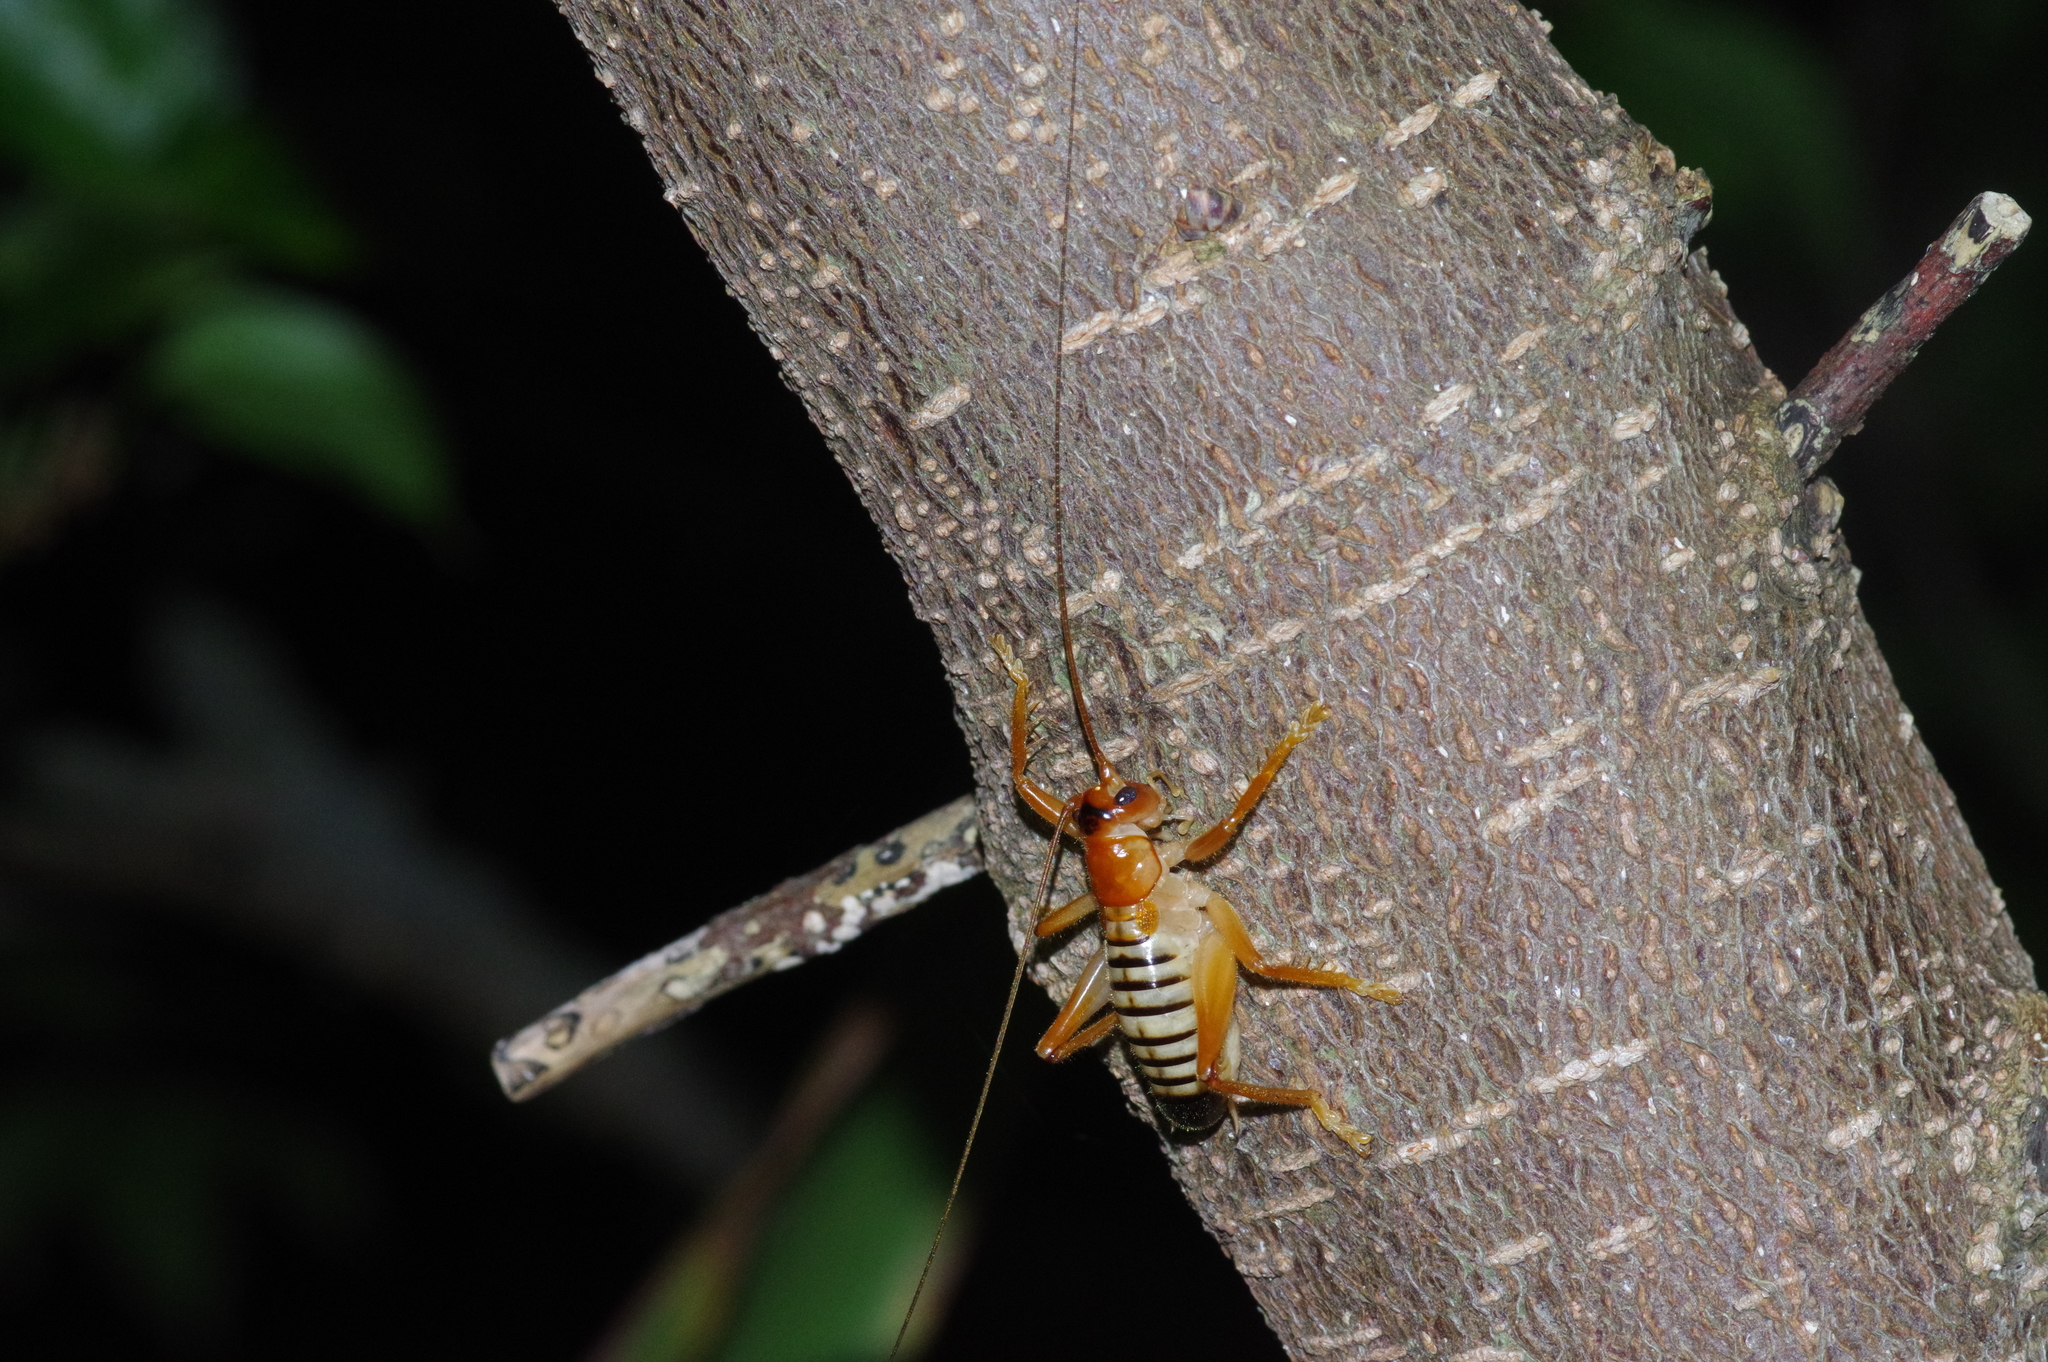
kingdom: Animalia
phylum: Arthropoda
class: Insecta
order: Orthoptera
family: Gryllacrididae
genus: Metriogryllacris
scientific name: Metriogryllacris magna
